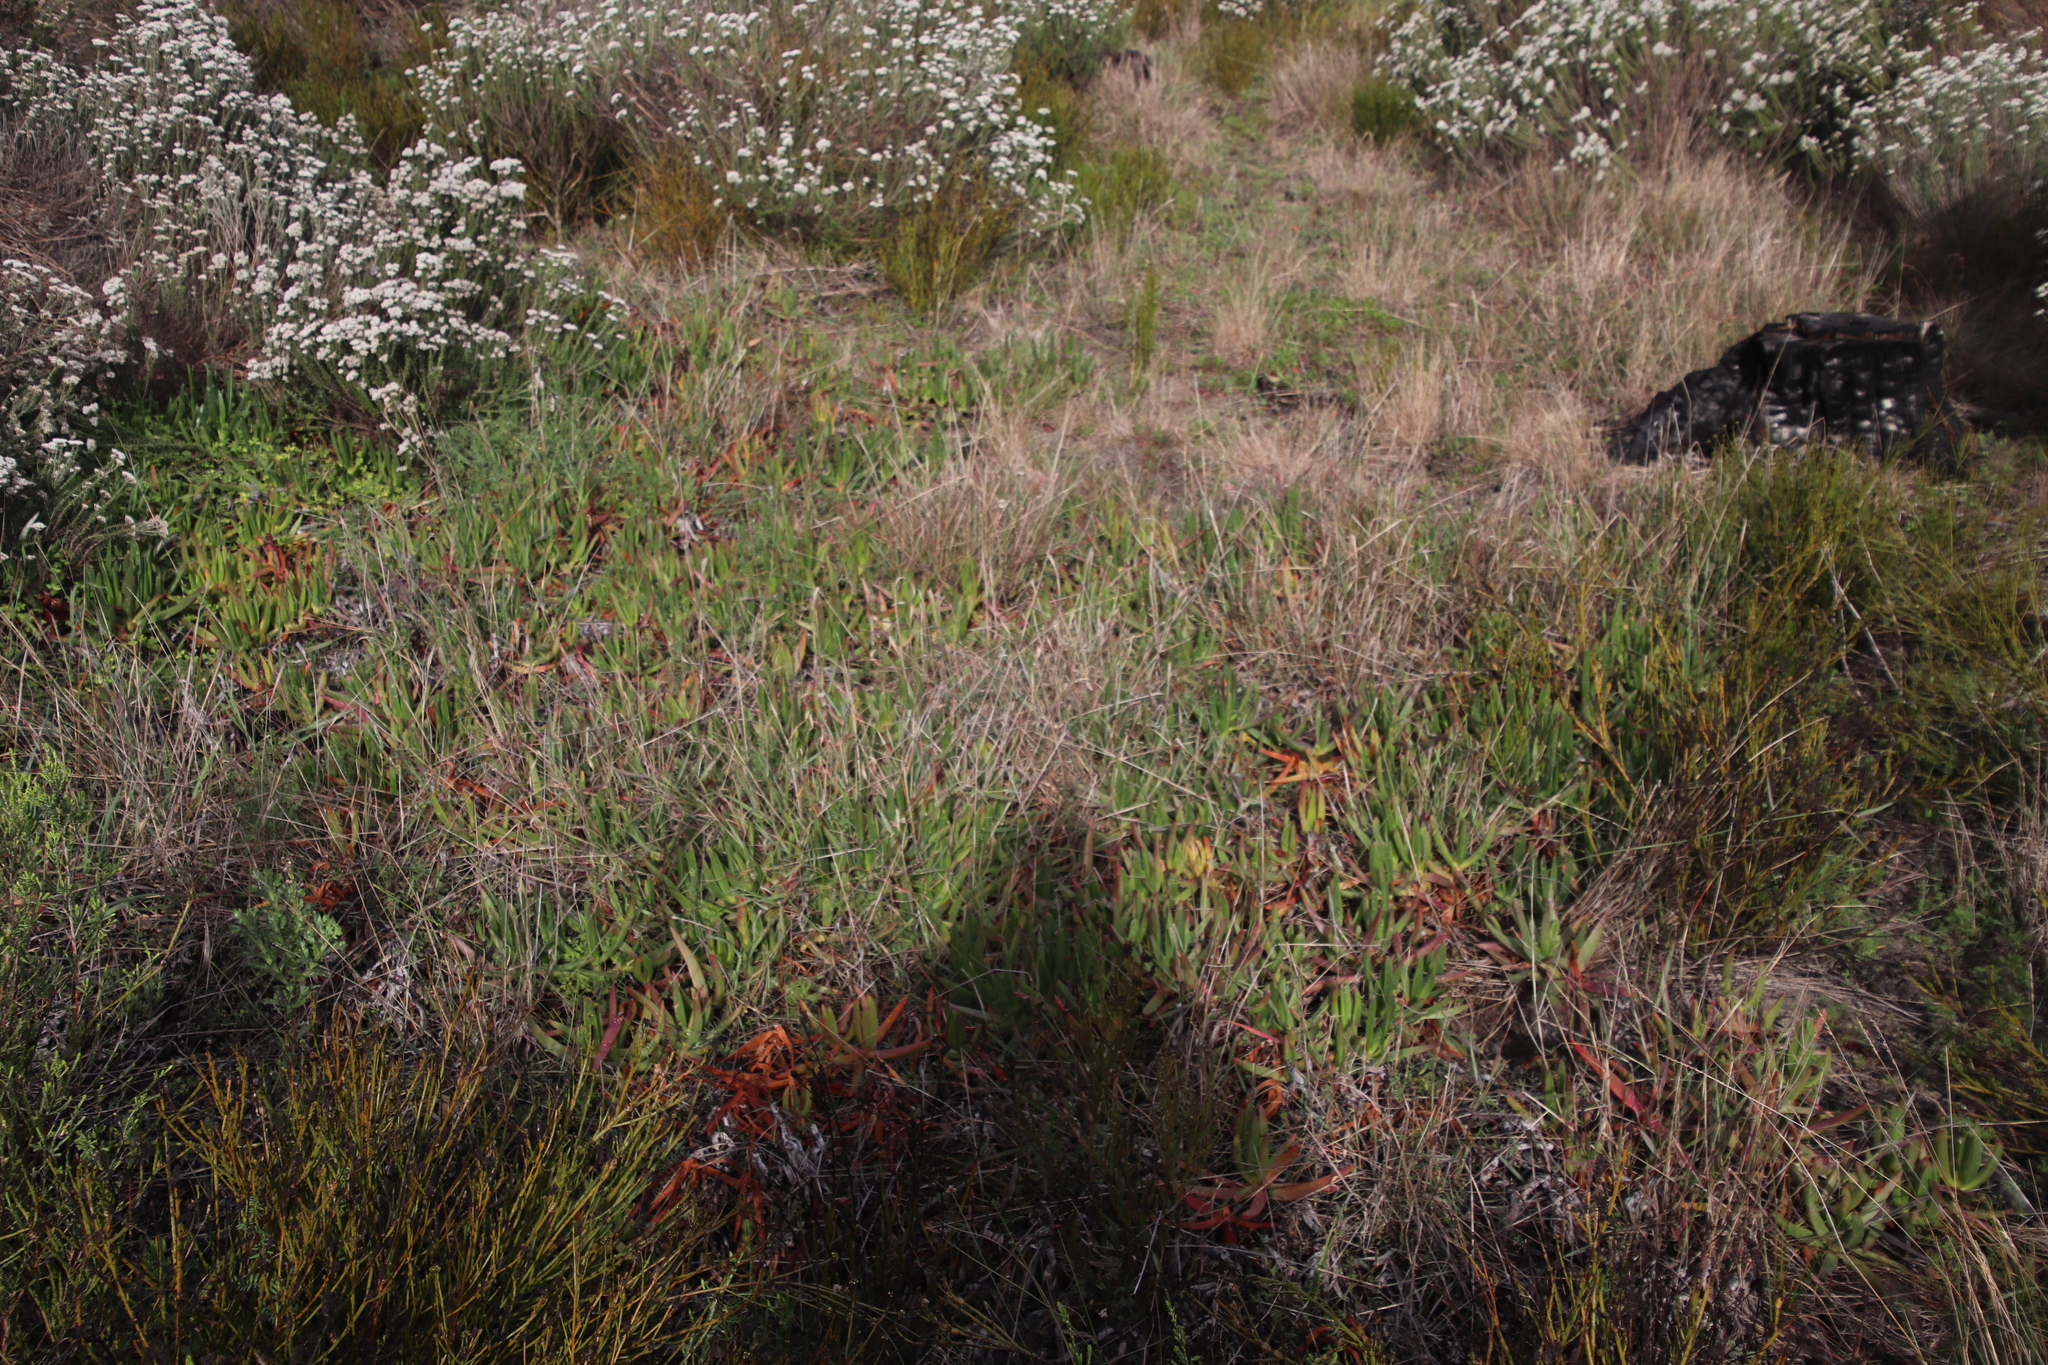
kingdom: Plantae
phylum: Tracheophyta
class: Magnoliopsida
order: Caryophyllales
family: Aizoaceae
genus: Carpobrotus
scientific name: Carpobrotus edulis
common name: Hottentot-fig
